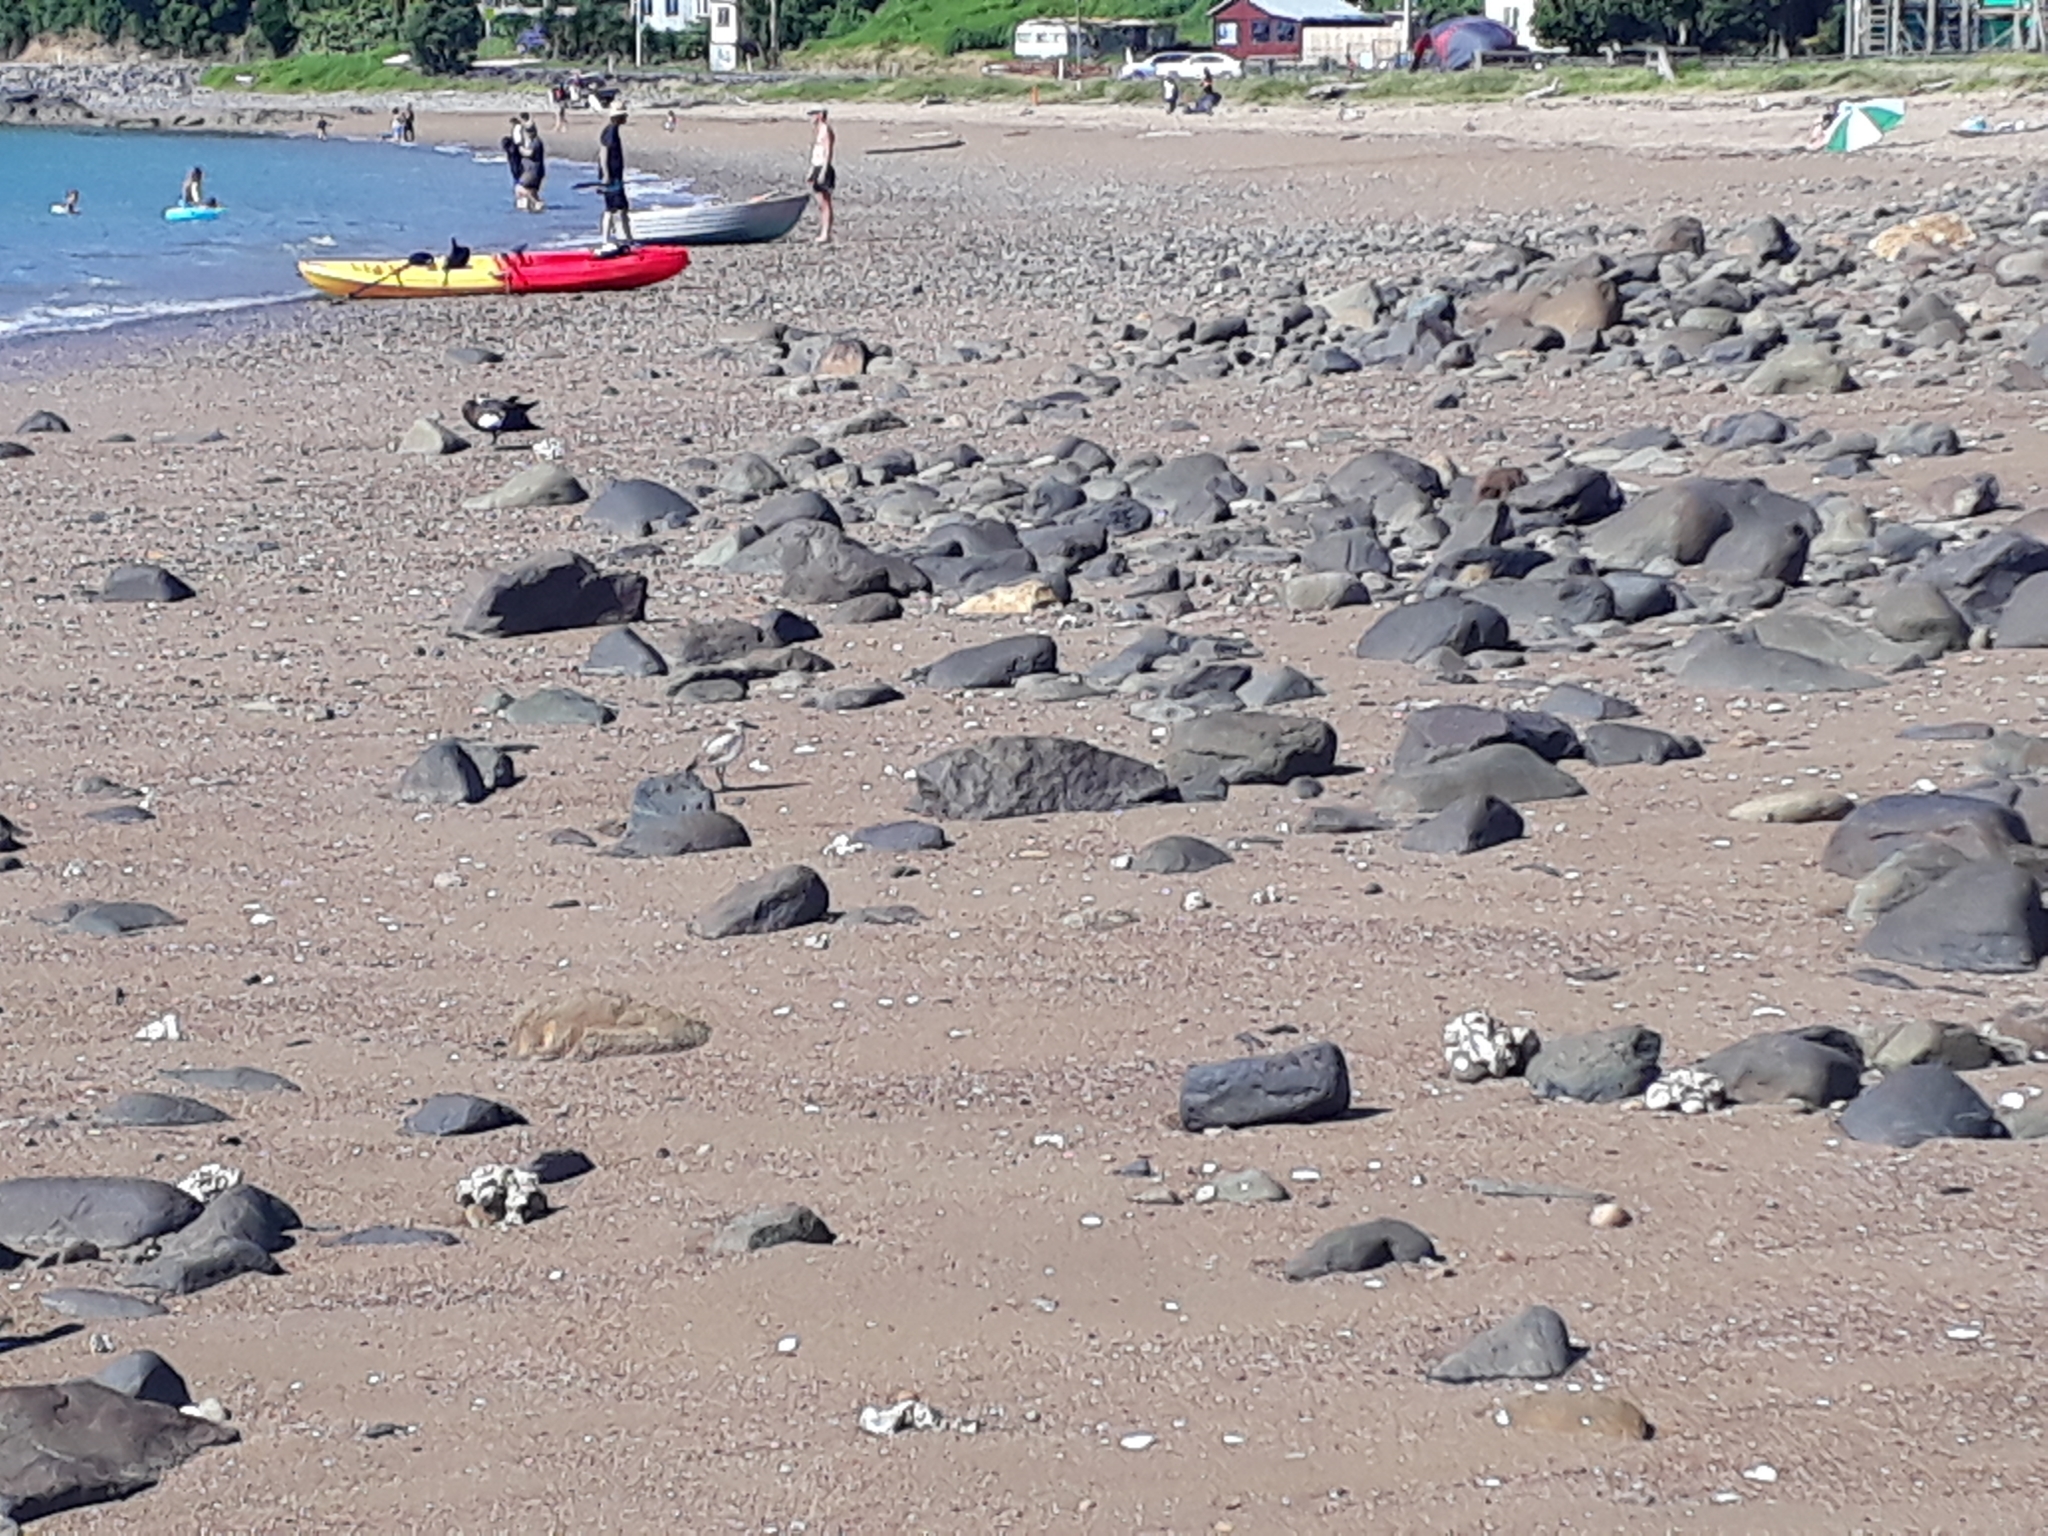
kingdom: Animalia
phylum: Chordata
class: Aves
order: Charadriiformes
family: Charadriidae
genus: Anarhynchus
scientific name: Anarhynchus
